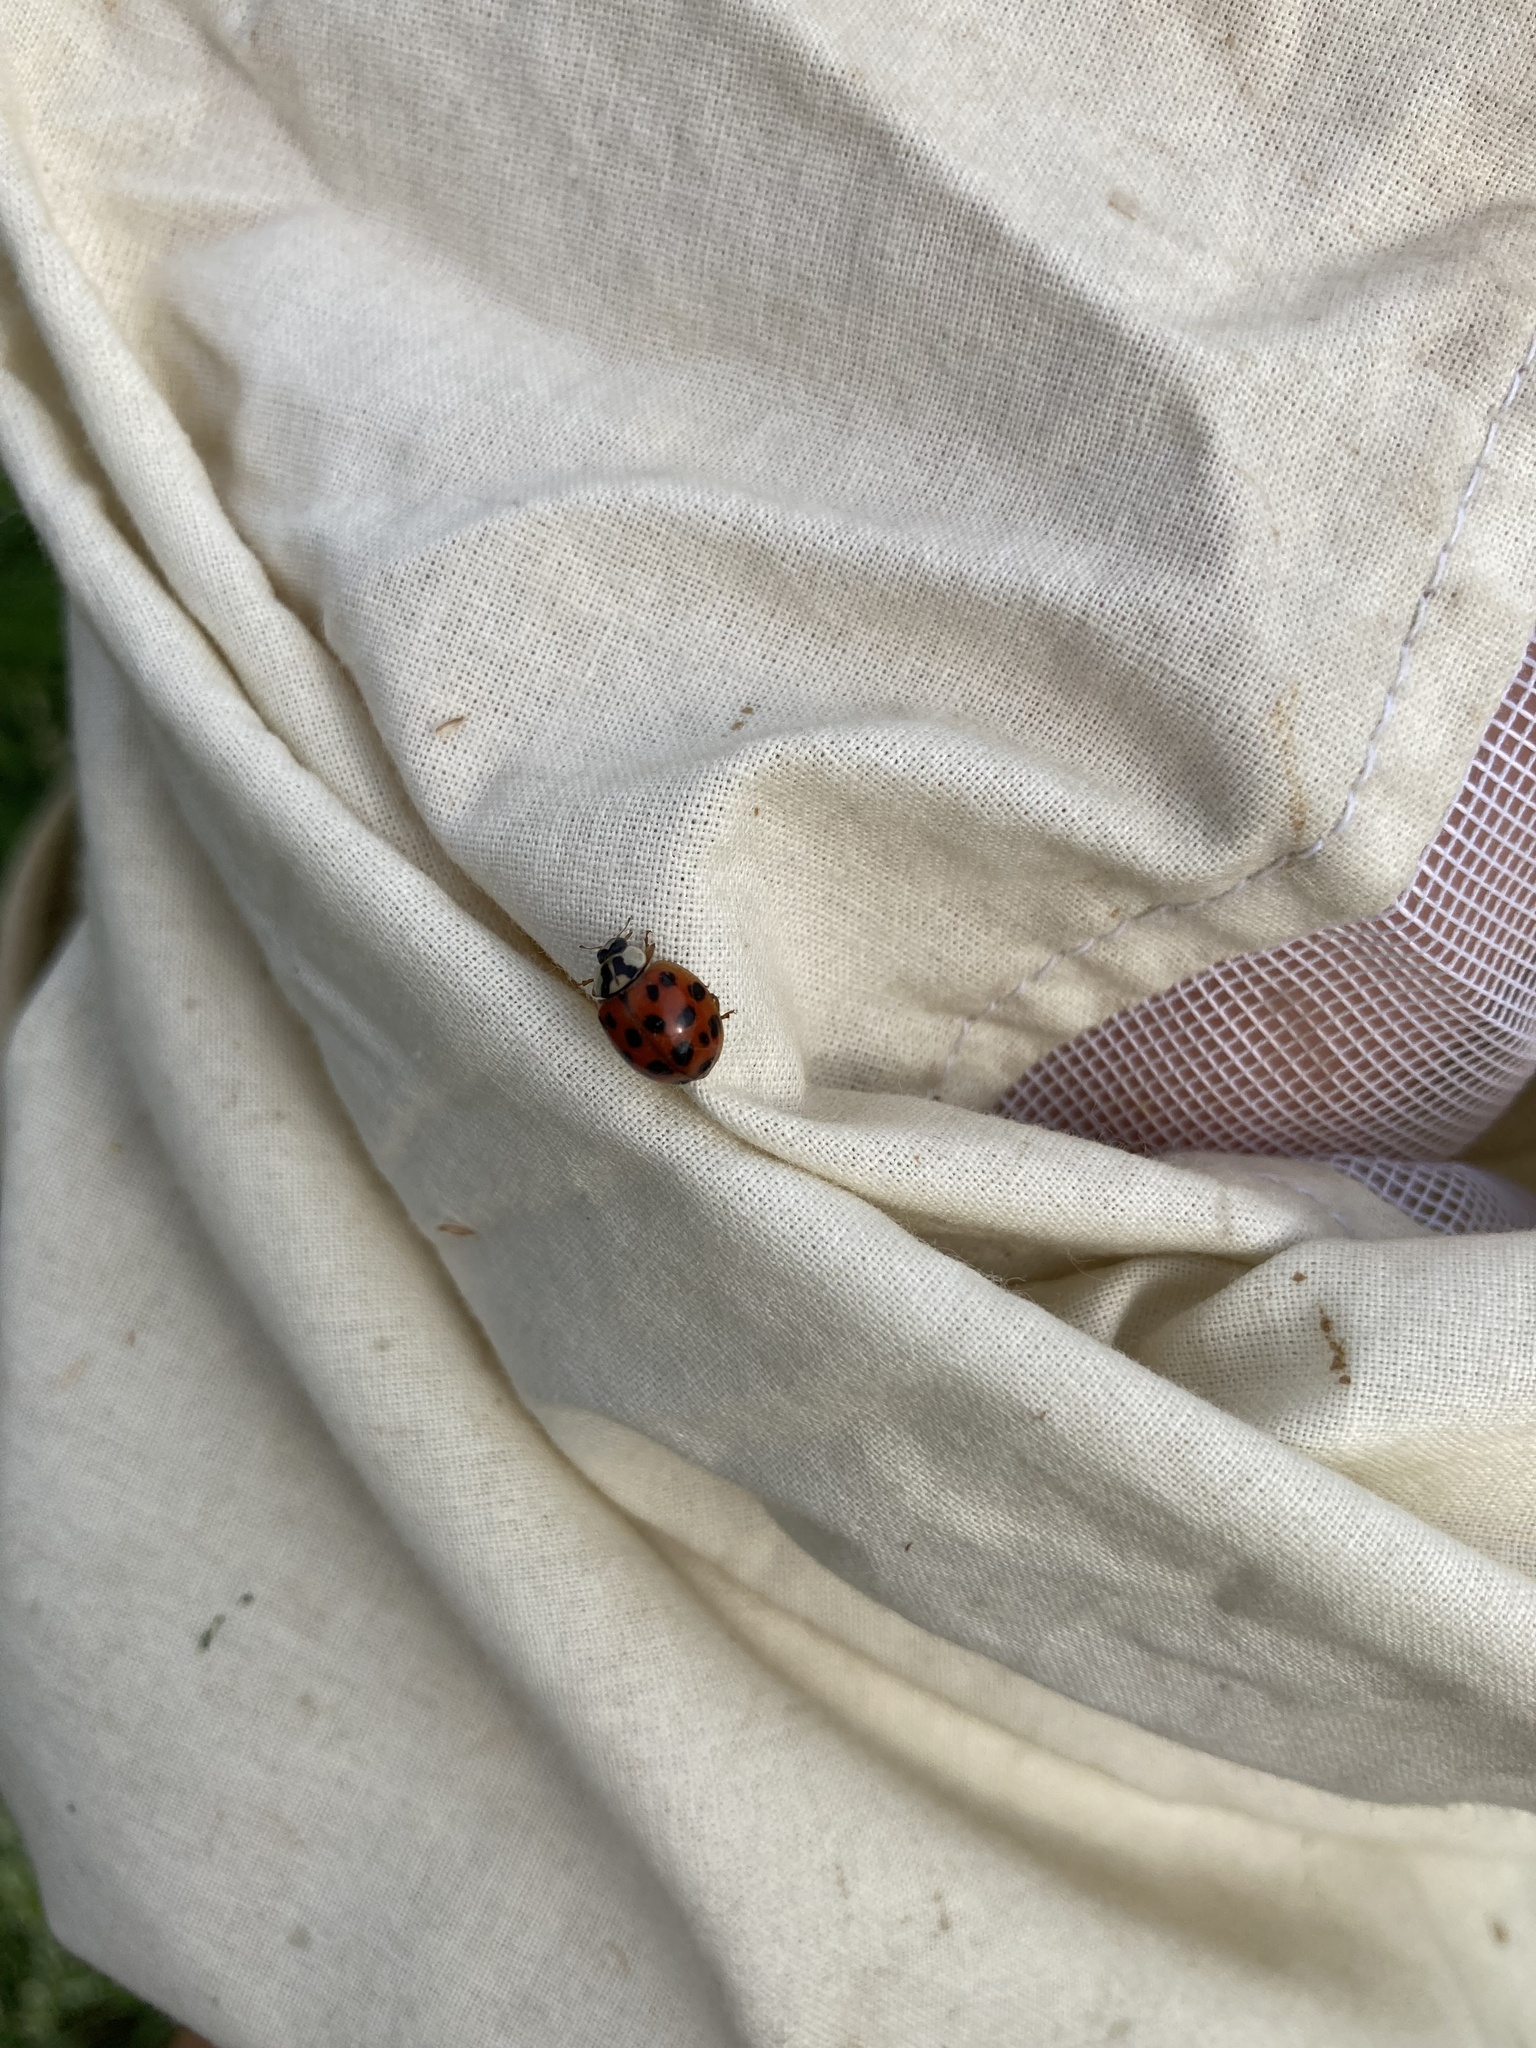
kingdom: Animalia
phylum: Arthropoda
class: Insecta
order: Coleoptera
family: Coccinellidae
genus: Harmonia
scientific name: Harmonia axyridis
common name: Harlequin ladybird
